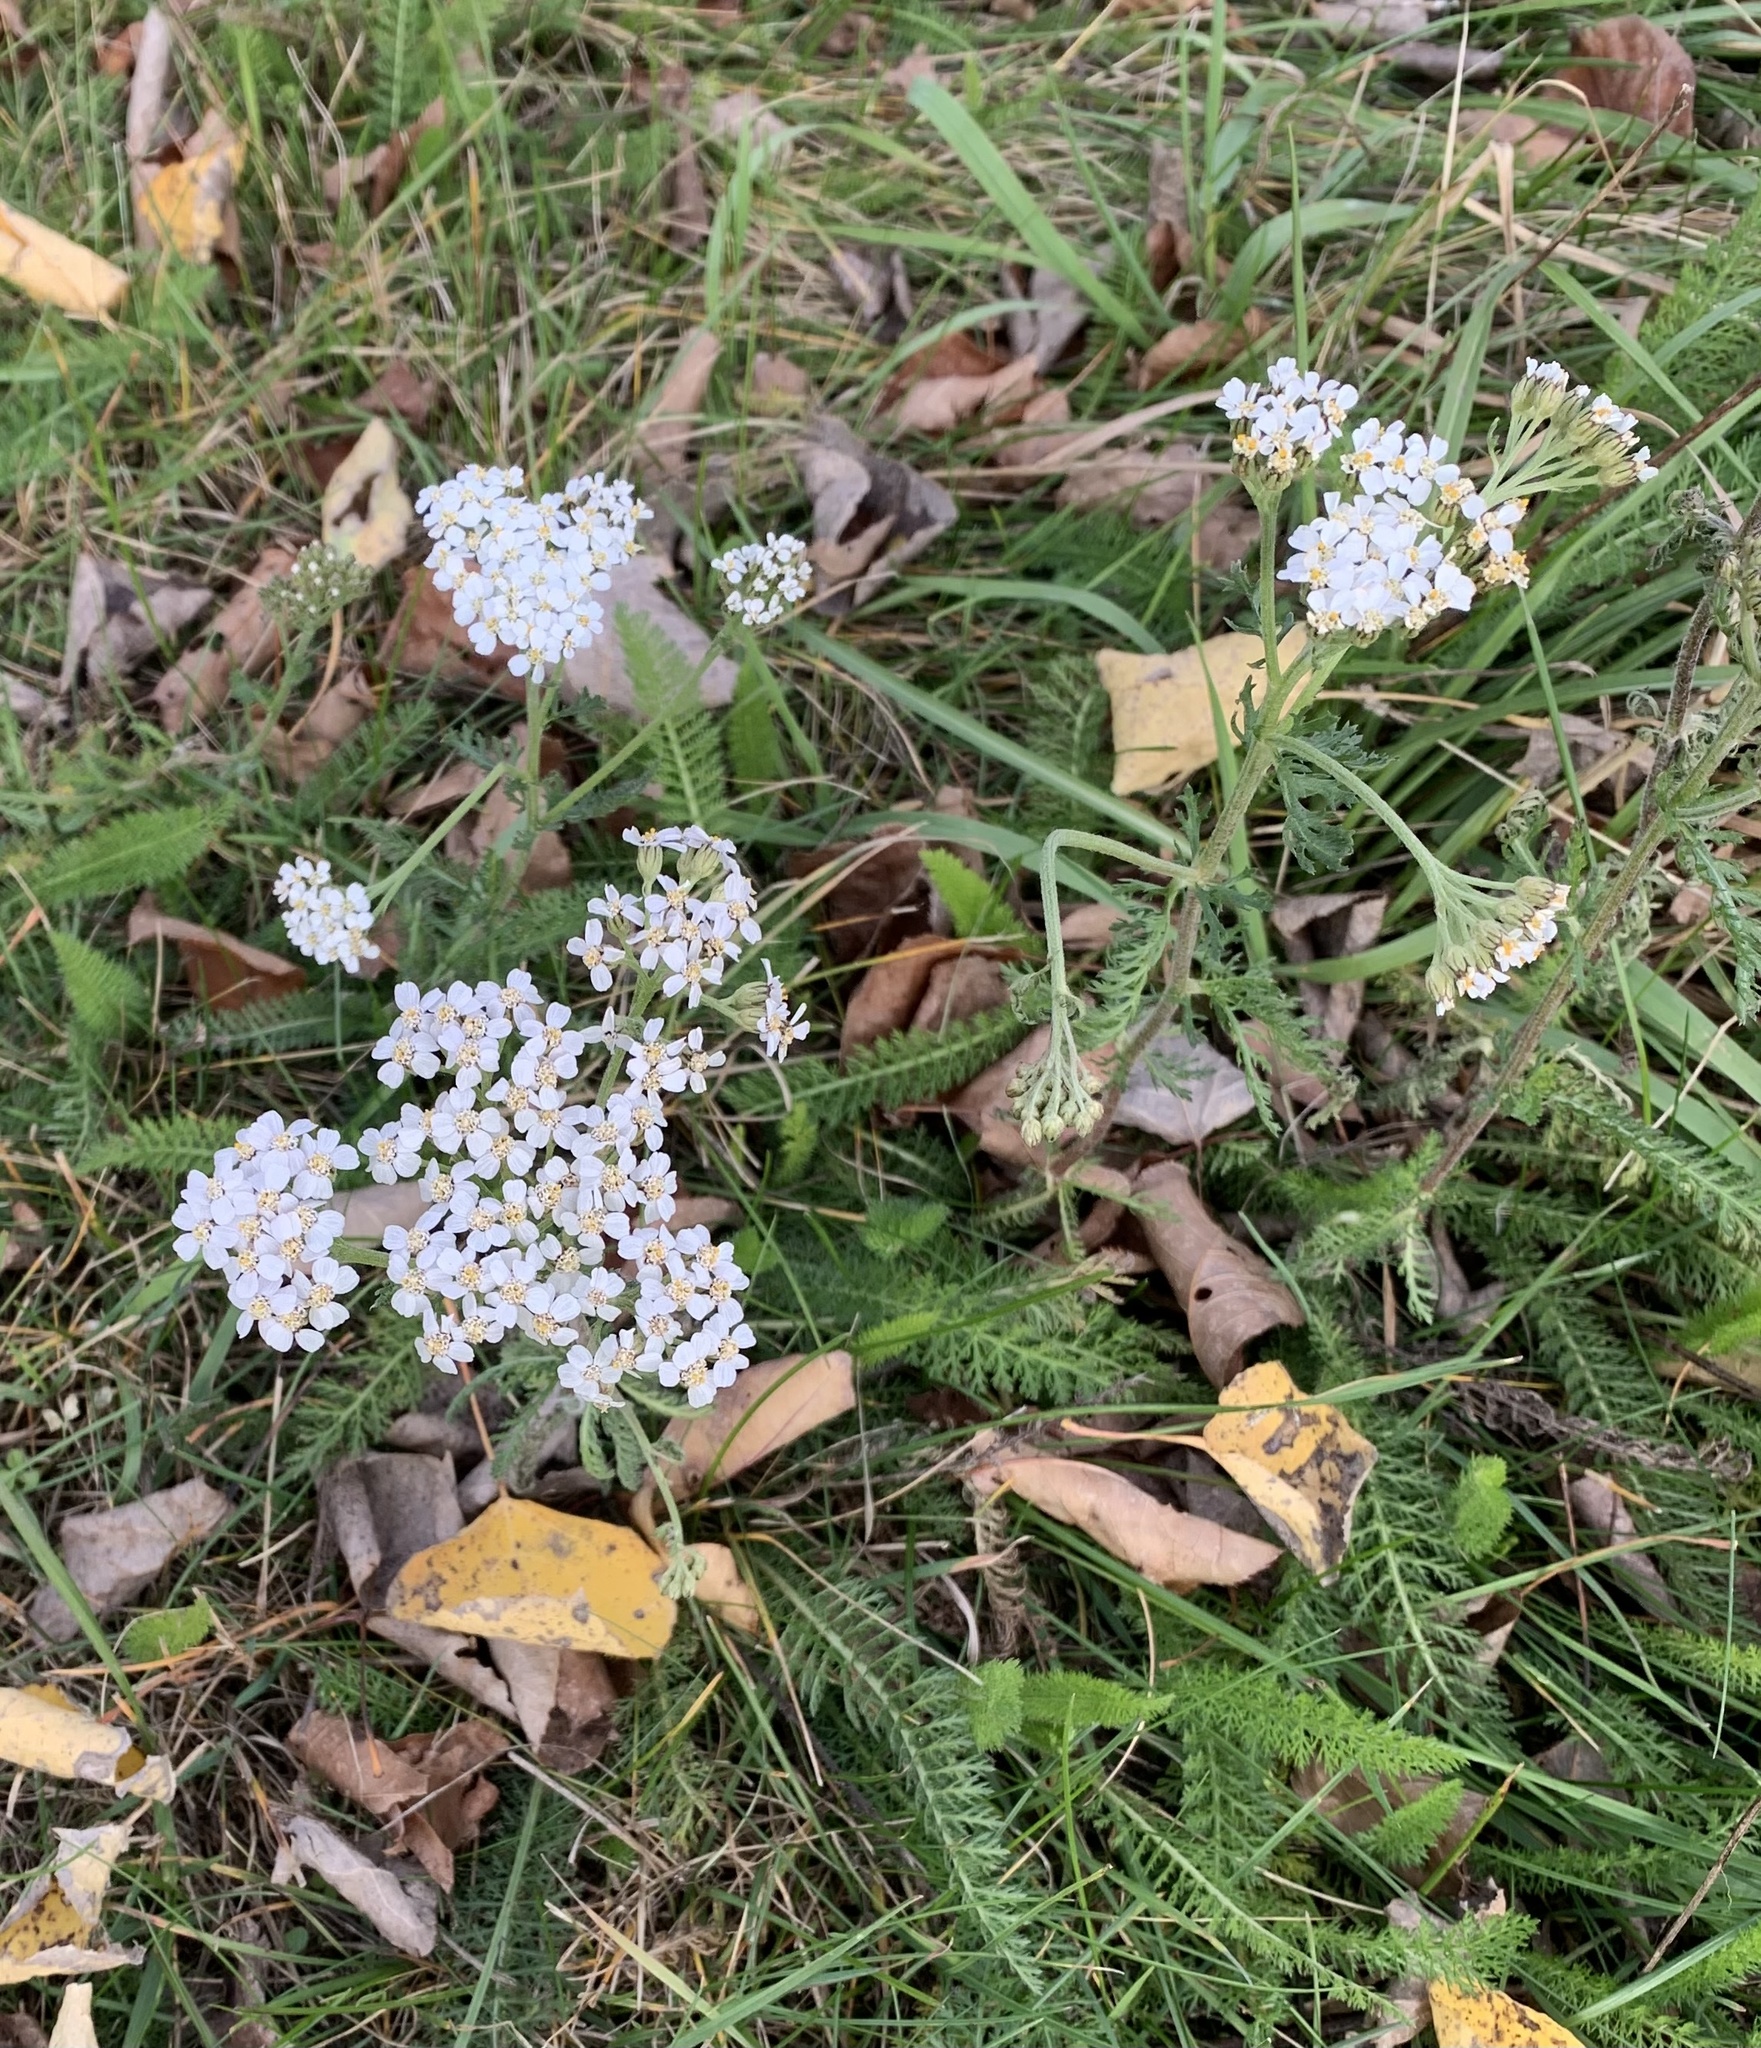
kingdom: Plantae
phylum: Tracheophyta
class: Magnoliopsida
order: Asterales
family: Asteraceae
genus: Achillea
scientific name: Achillea millefolium
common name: Yarrow
